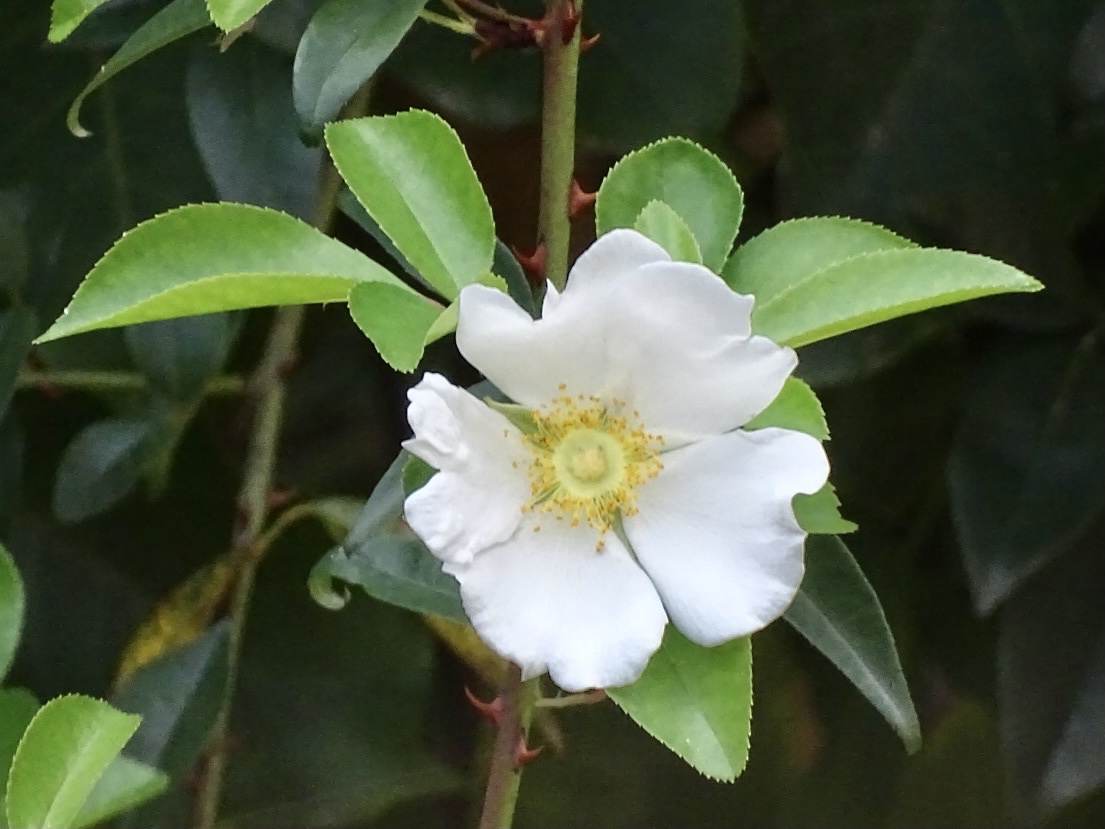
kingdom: Plantae
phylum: Tracheophyta
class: Magnoliopsida
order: Rosales
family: Rosaceae
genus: Rosa
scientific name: Rosa laevigata
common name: Cherokee rose
